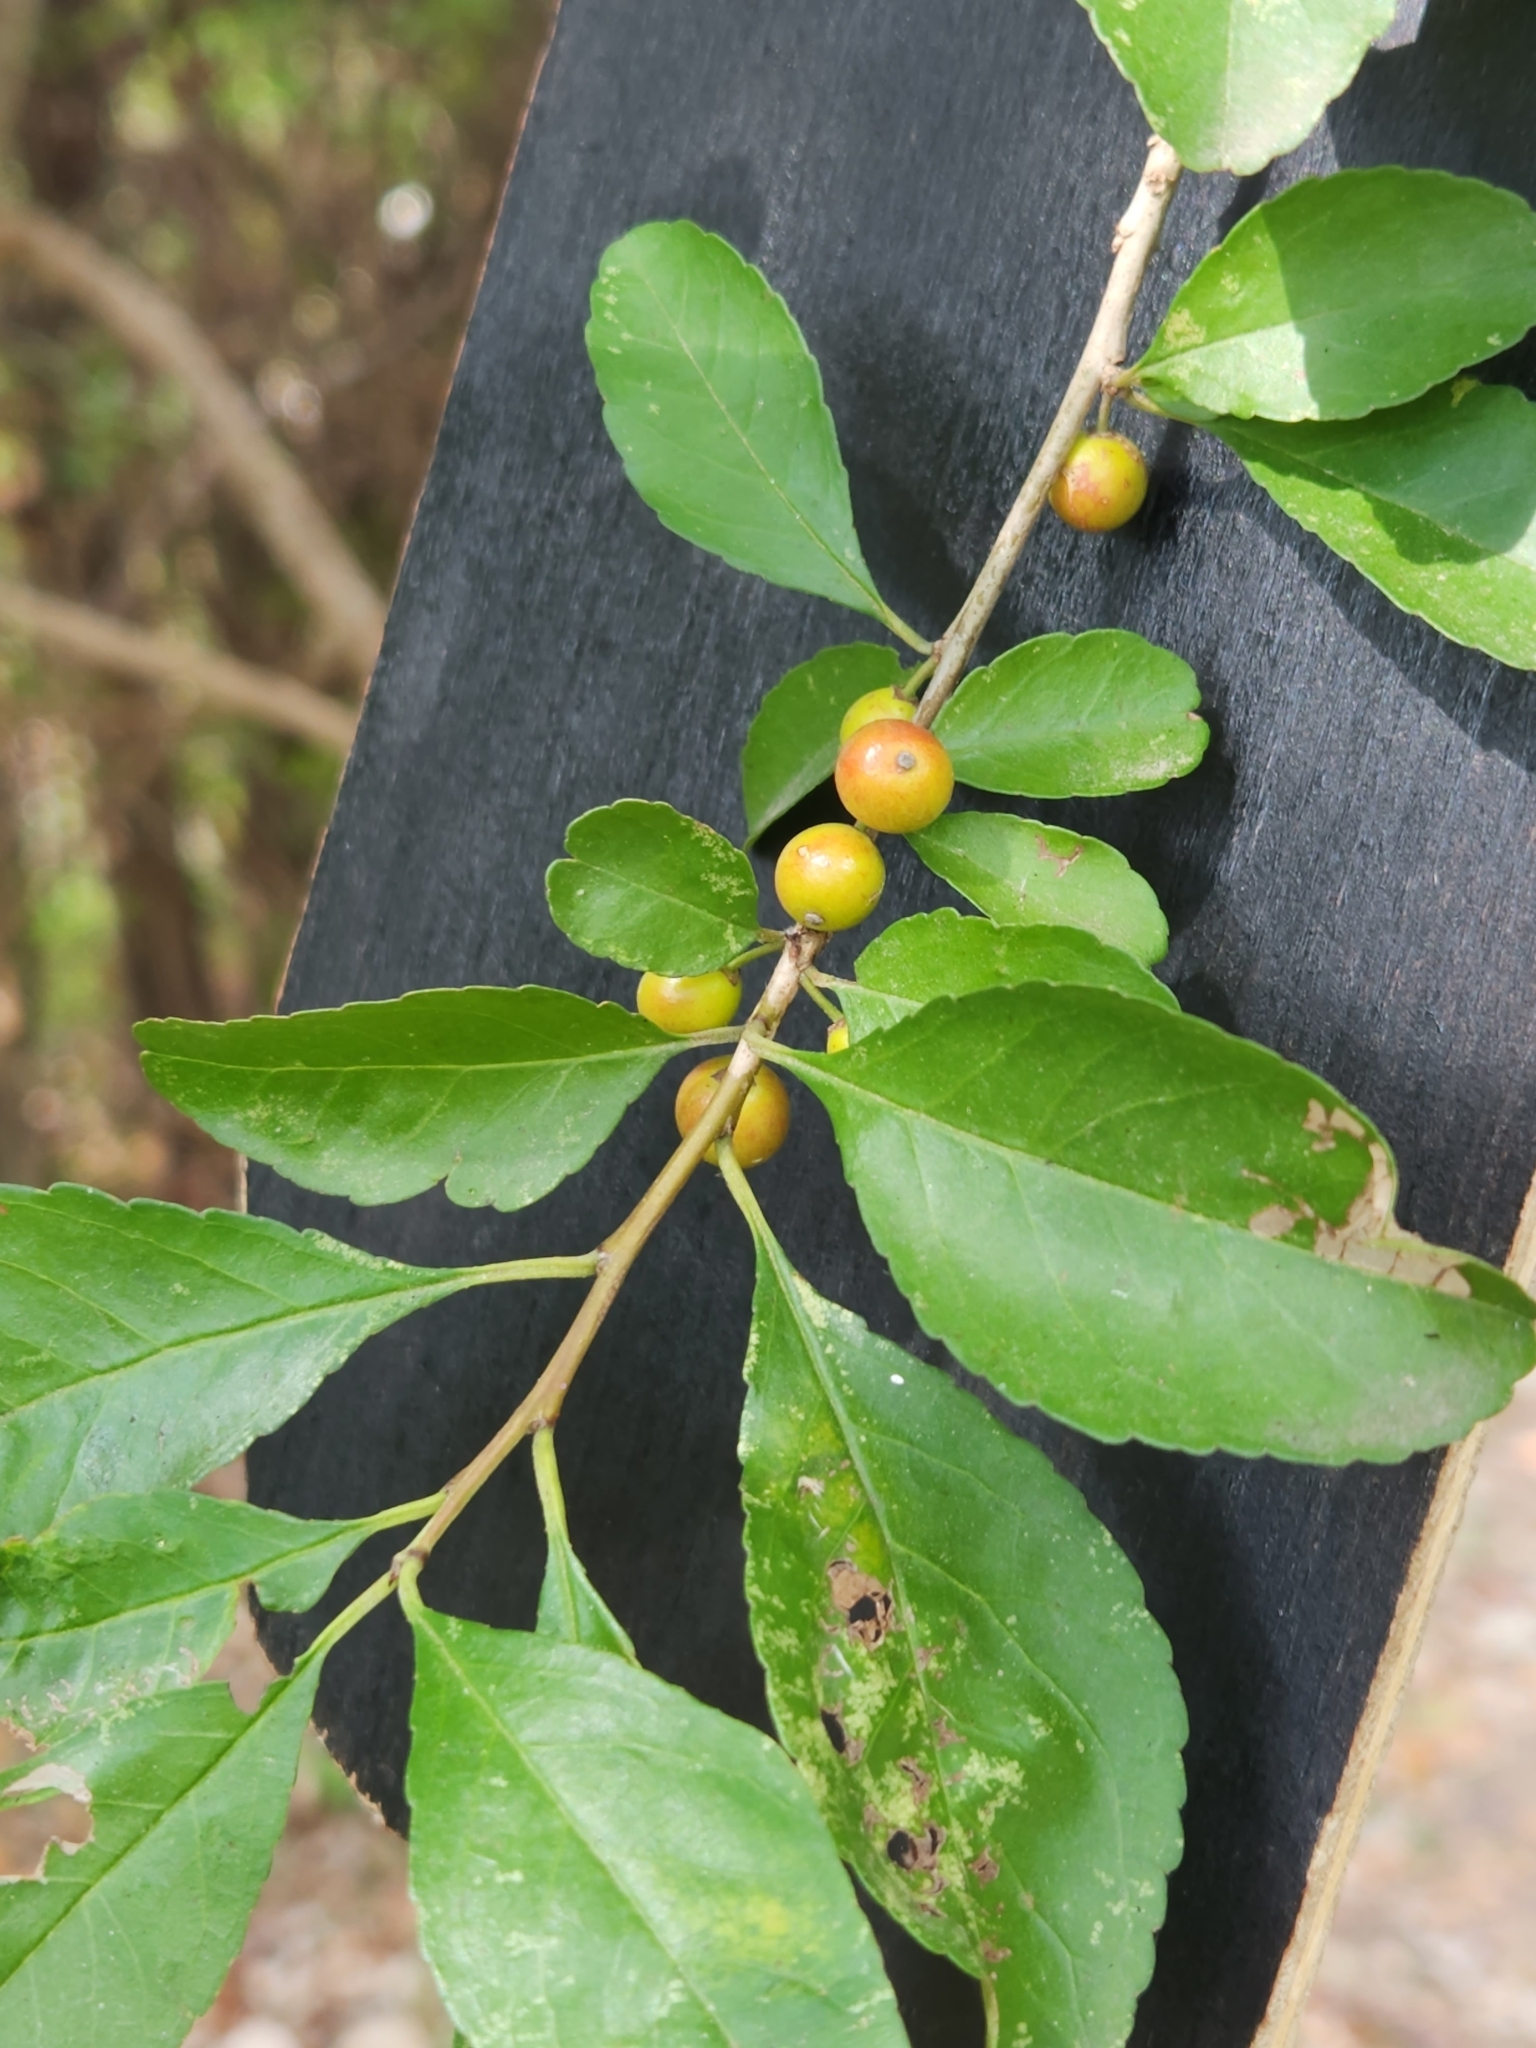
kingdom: Plantae
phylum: Tracheophyta
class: Magnoliopsida
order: Aquifoliales
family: Aquifoliaceae
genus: Ilex
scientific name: Ilex decidua
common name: Possum-haw
